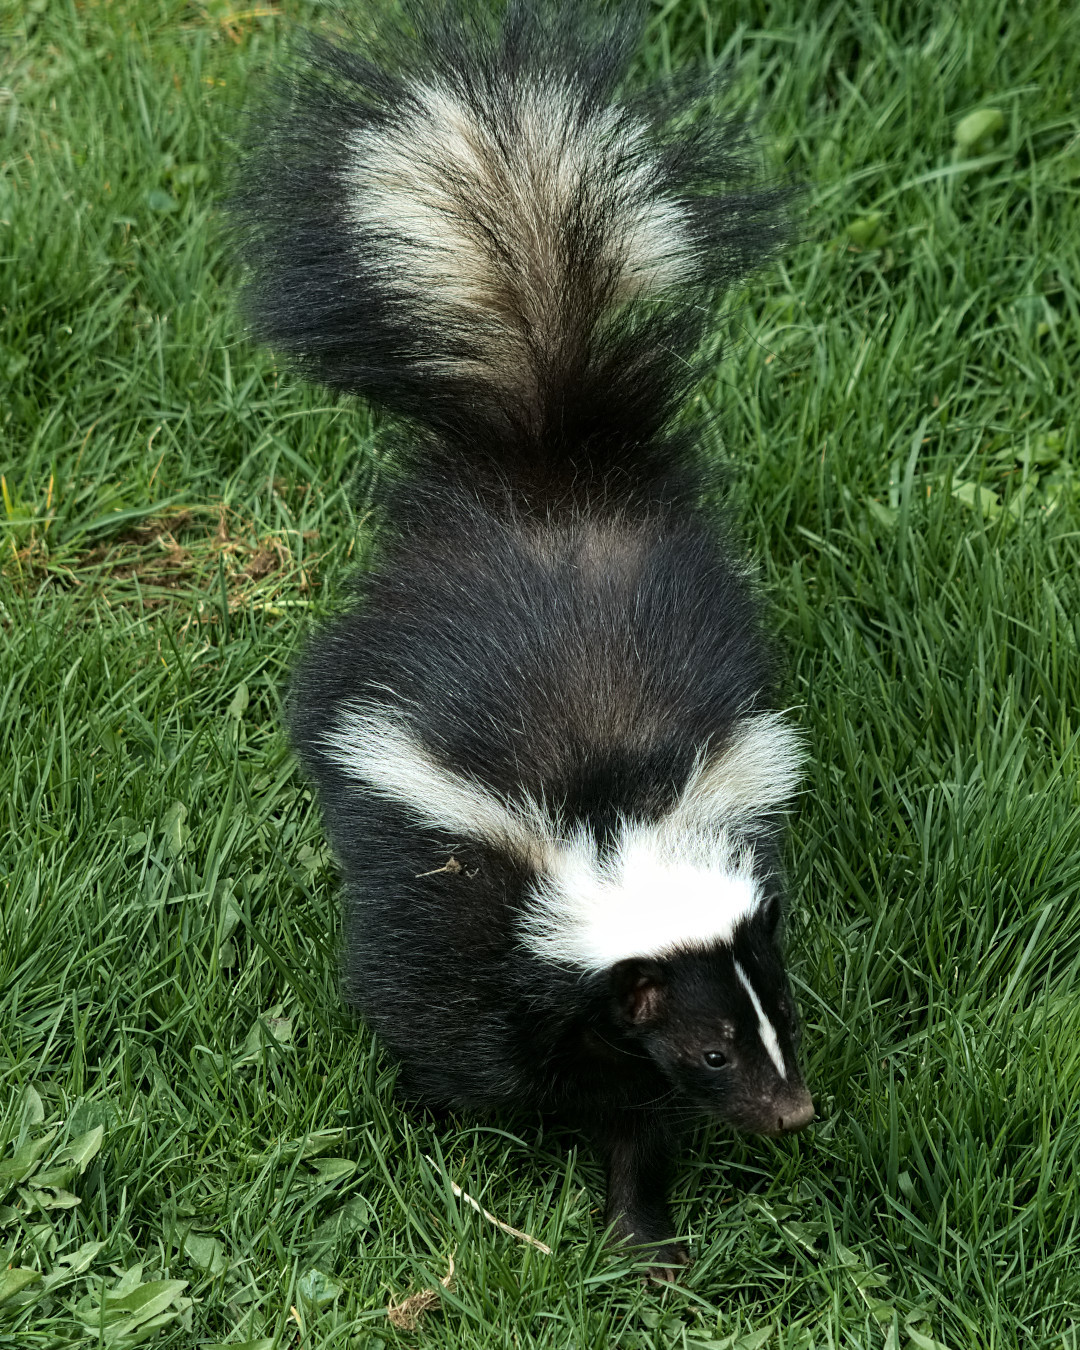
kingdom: Animalia
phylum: Chordata
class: Mammalia
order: Carnivora
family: Mephitidae
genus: Mephitis
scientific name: Mephitis mephitis
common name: Striped skunk
